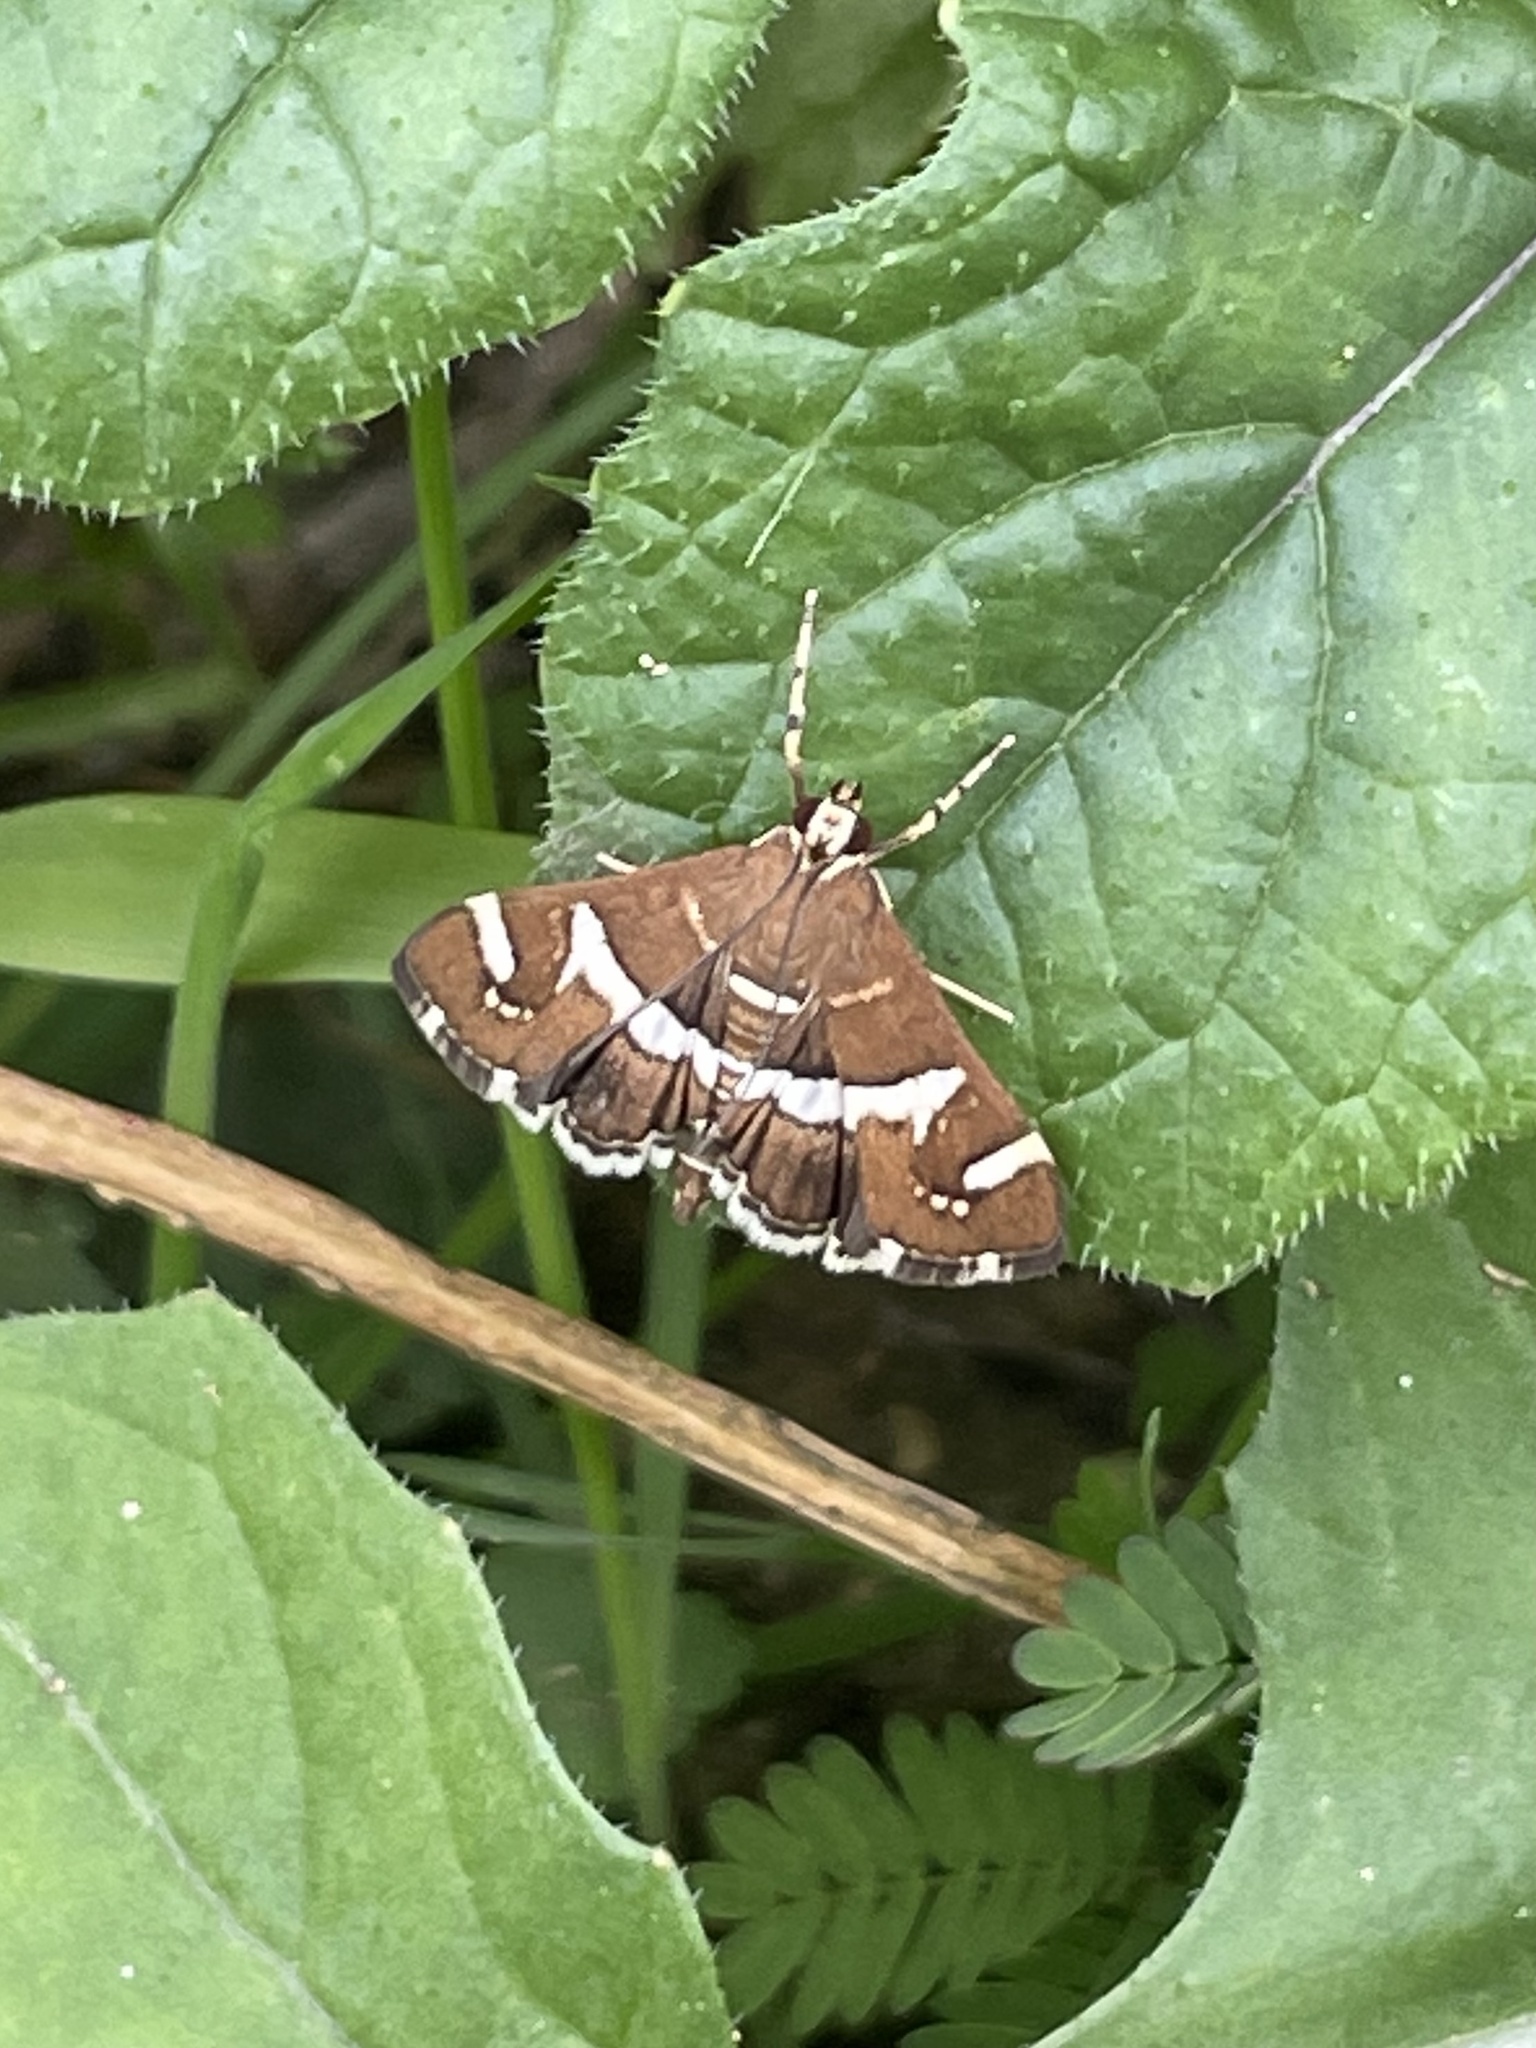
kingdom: Animalia
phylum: Arthropoda
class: Insecta
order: Lepidoptera
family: Crambidae
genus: Spoladea
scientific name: Spoladea recurvalis
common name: Beet webworm moth
